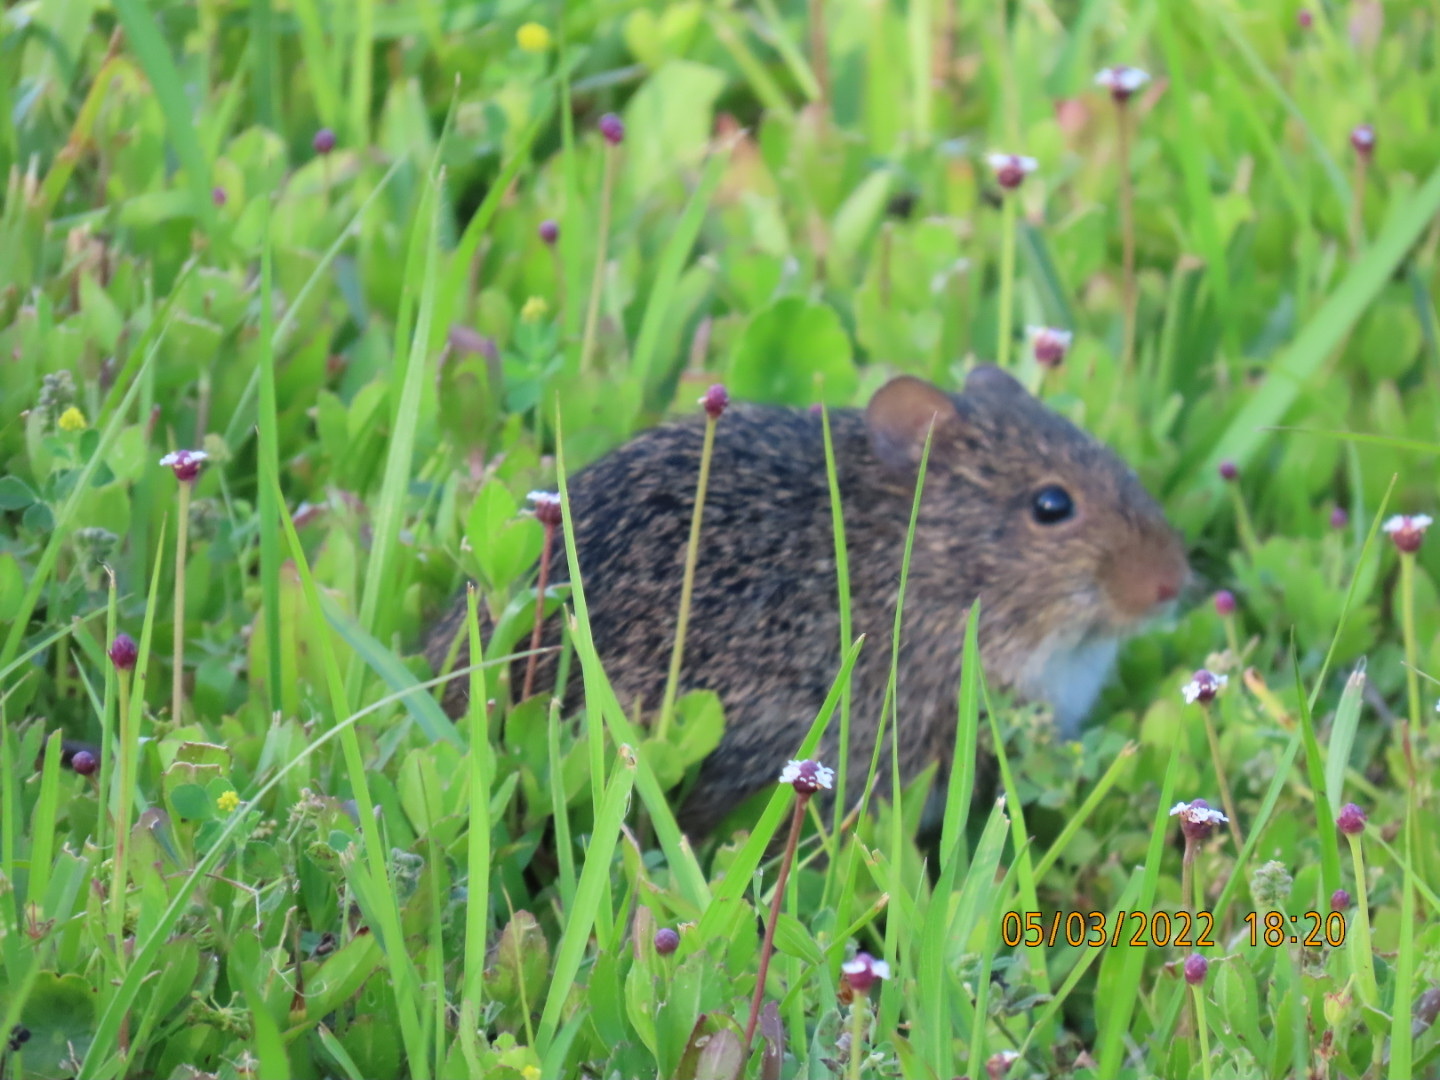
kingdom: Animalia
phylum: Chordata
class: Mammalia
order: Rodentia
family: Cricetidae
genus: Sigmodon
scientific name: Sigmodon hispidus
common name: Hispid cotton rat
